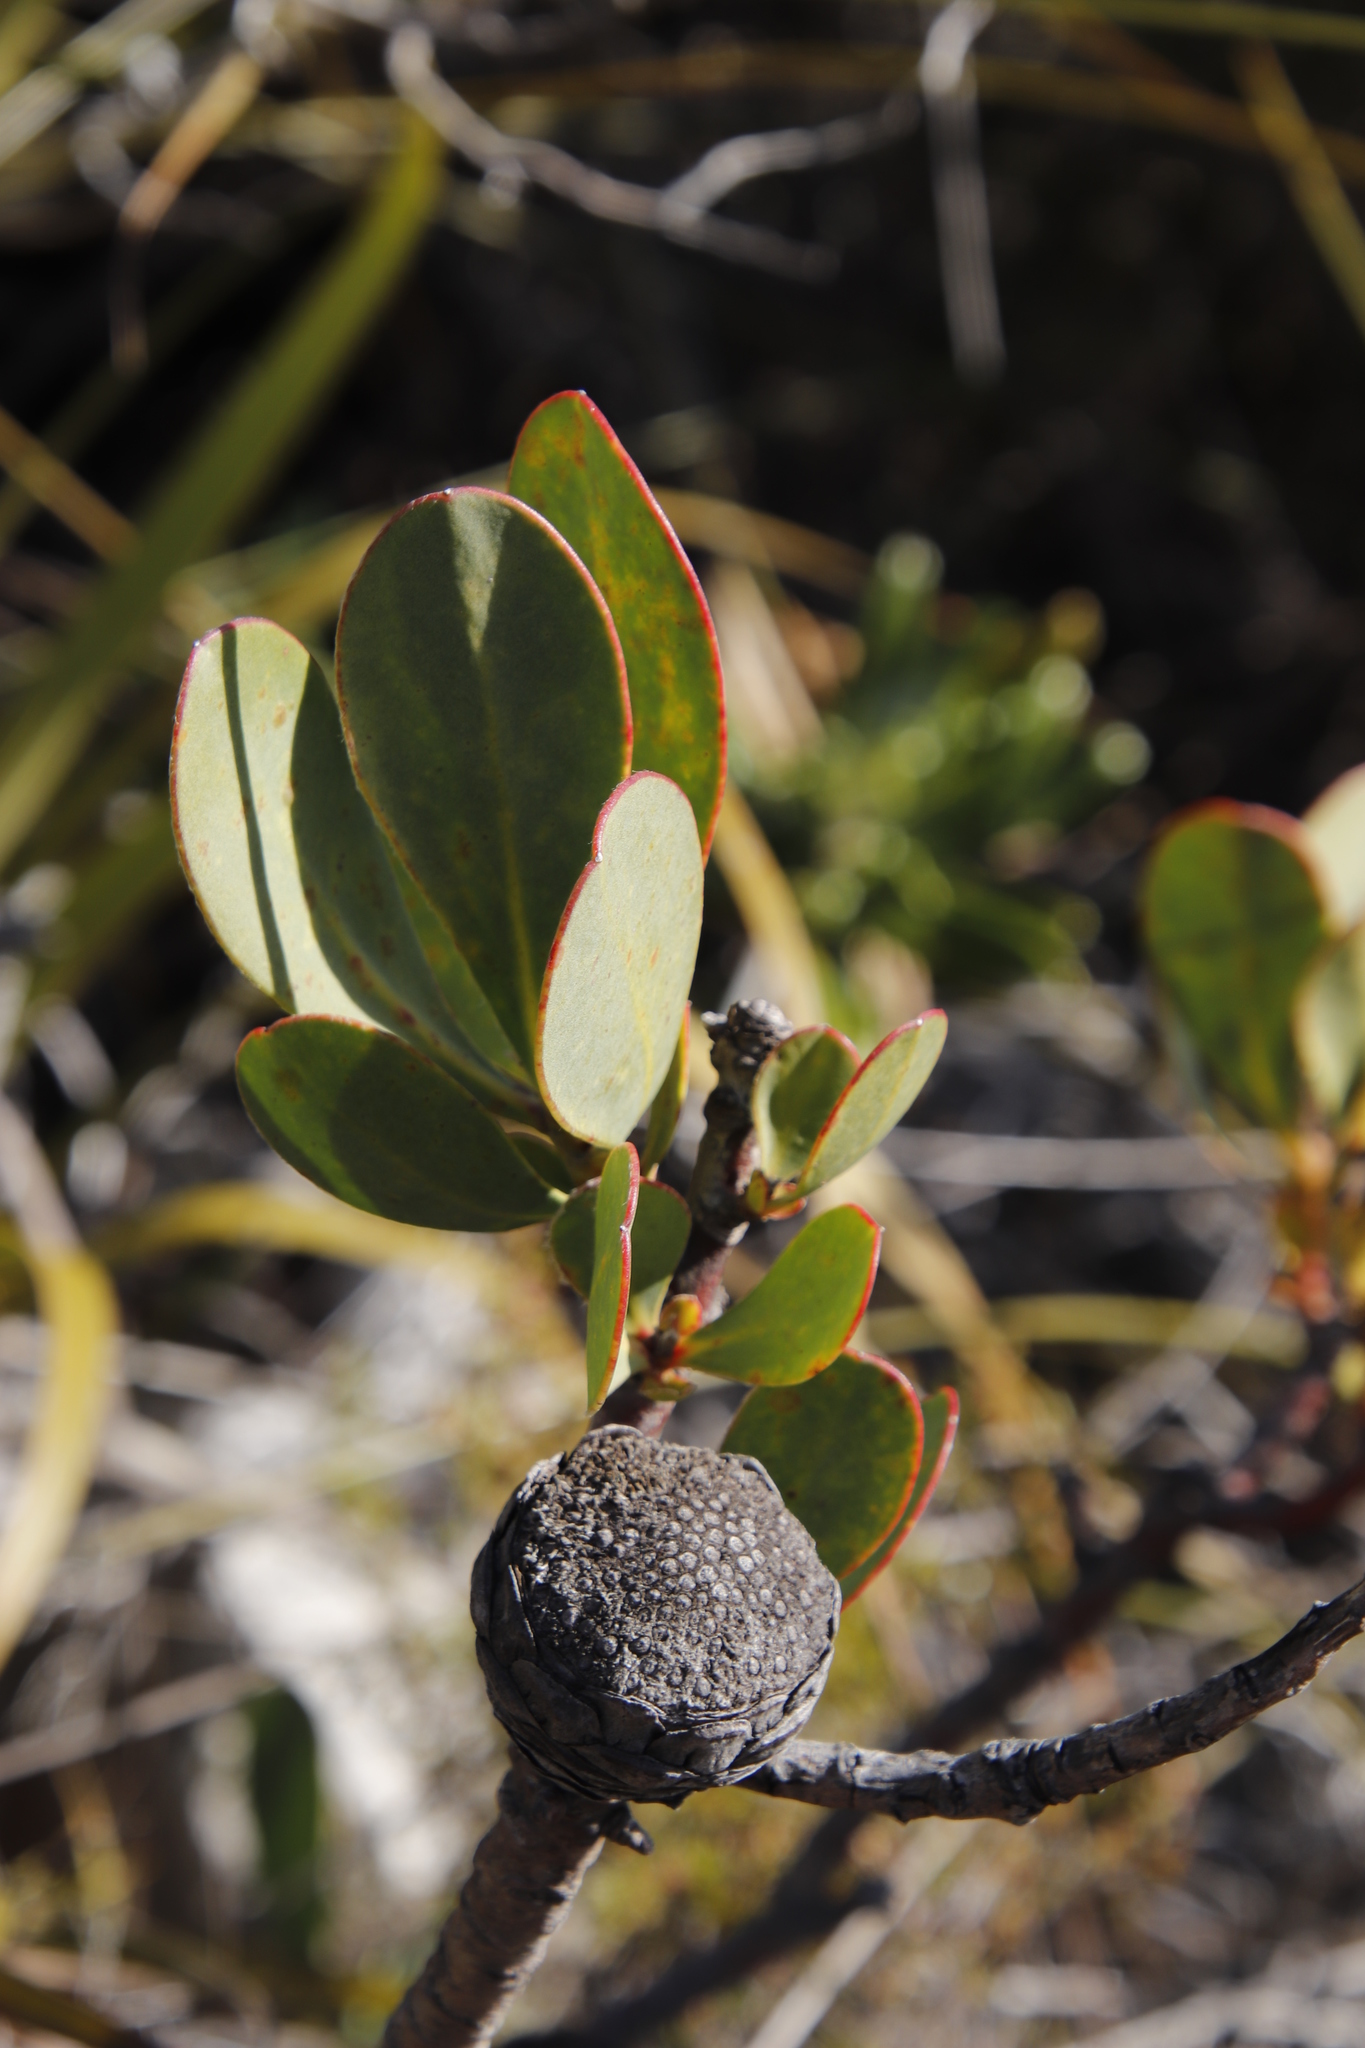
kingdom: Plantae
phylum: Tracheophyta
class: Magnoliopsida
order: Proteales
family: Proteaceae
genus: Leucadendron
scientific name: Leucadendron strobilinum
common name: Mountain rose
